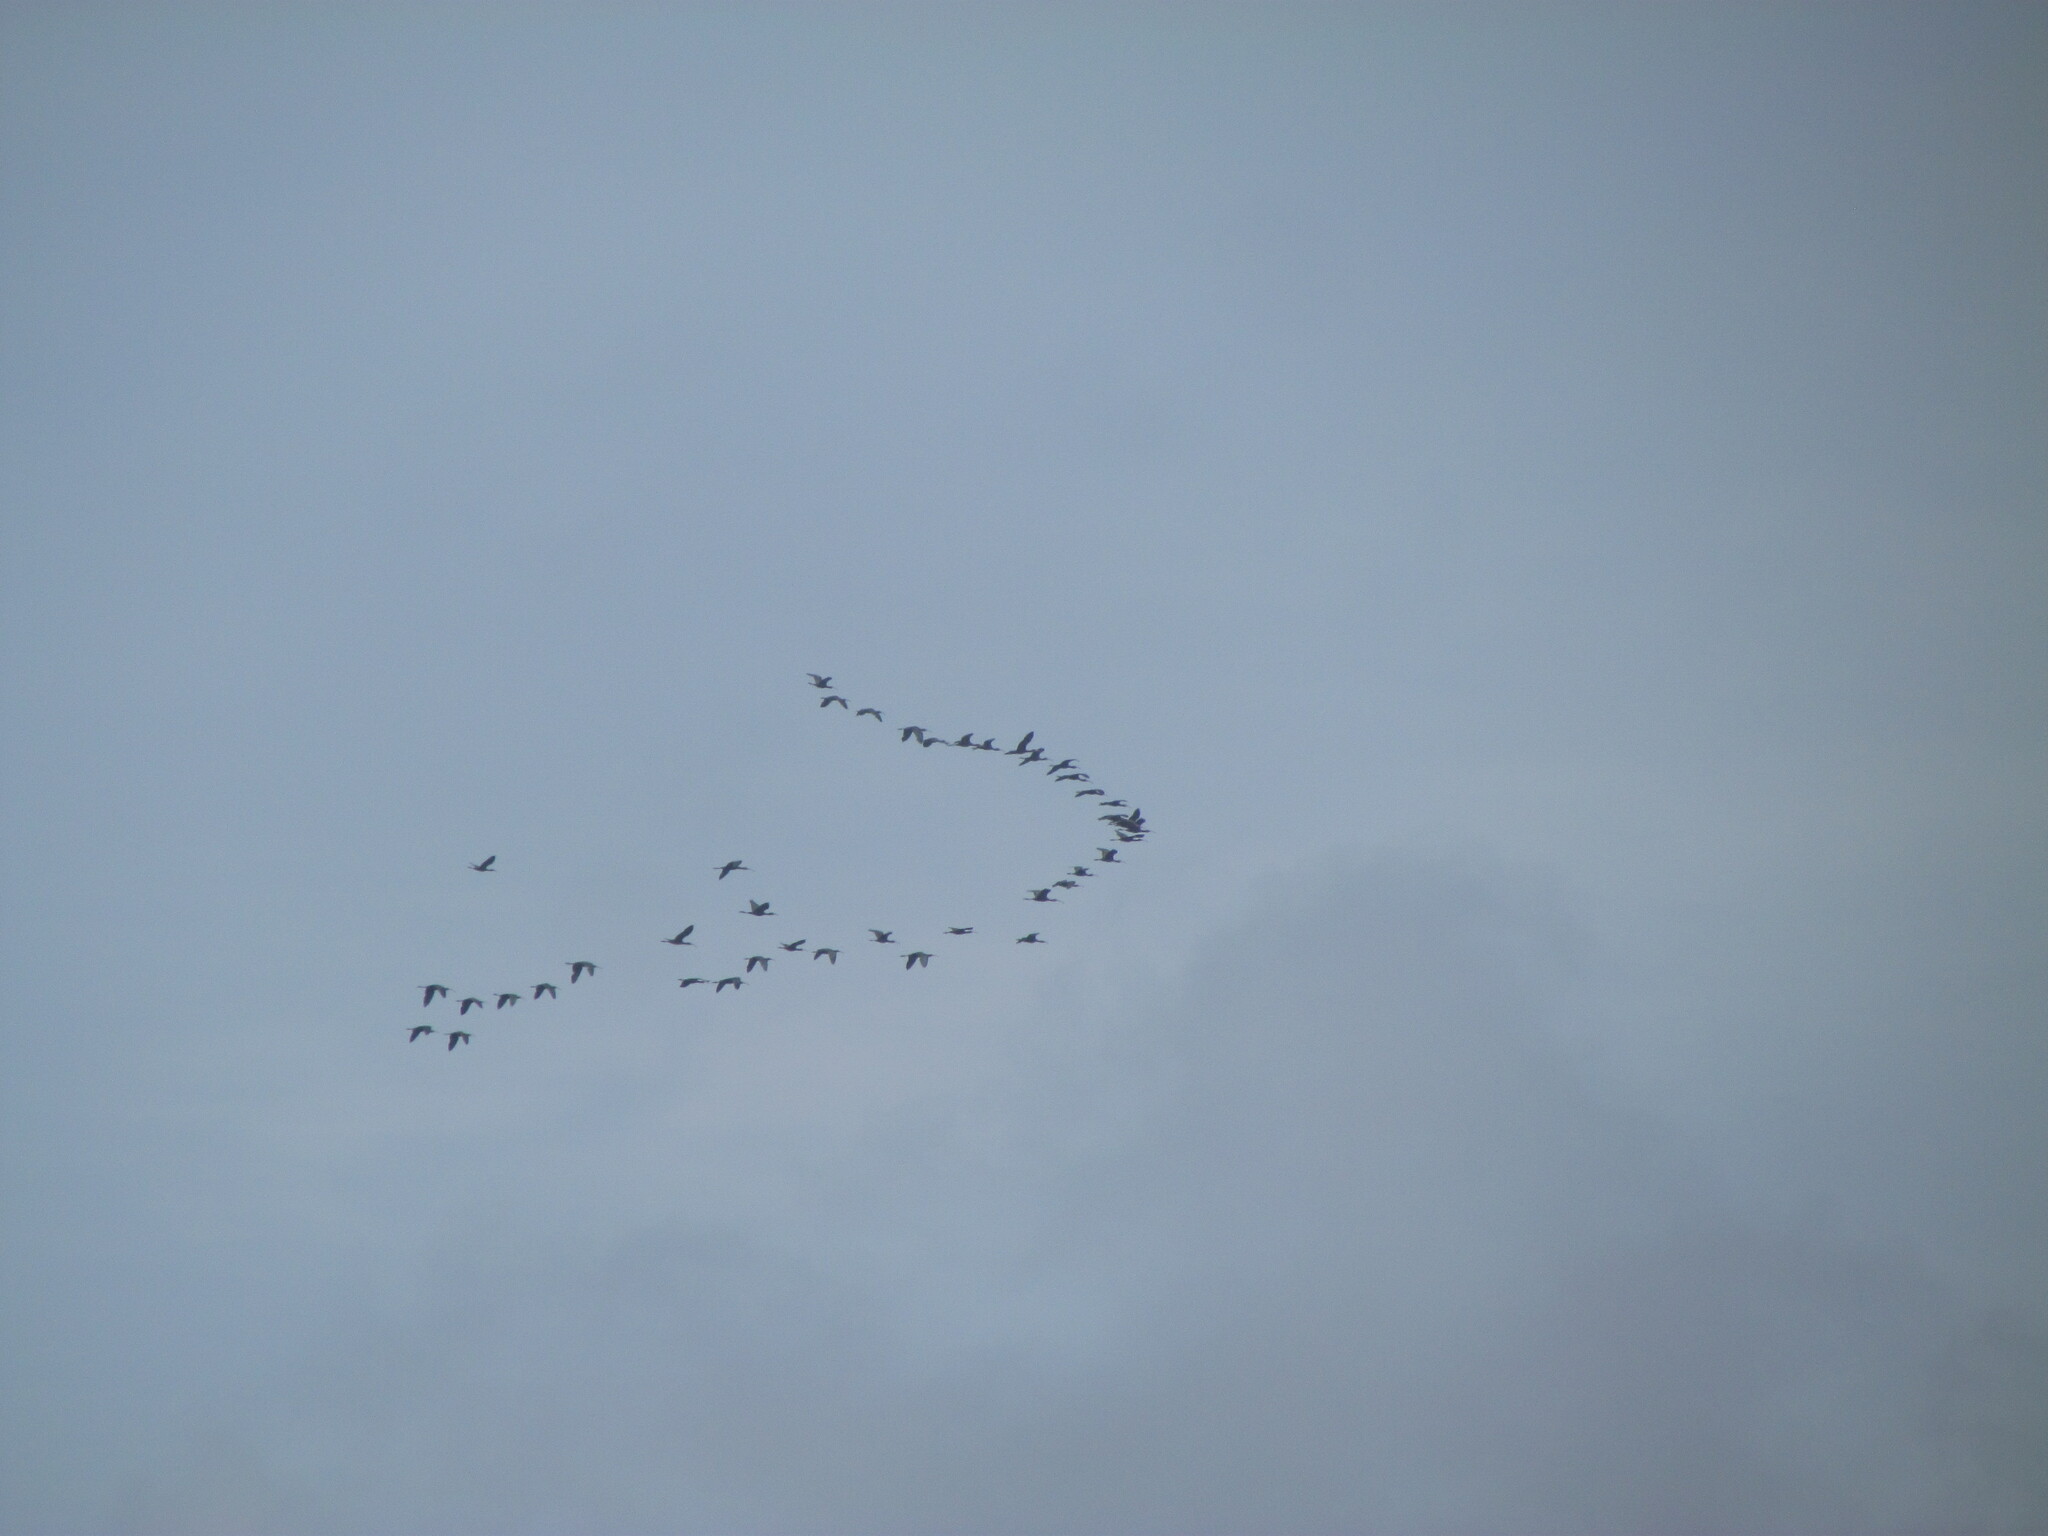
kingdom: Animalia
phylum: Chordata
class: Aves
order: Pelecaniformes
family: Threskiornithidae
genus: Plegadis
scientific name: Plegadis chihi
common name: White-faced ibis
